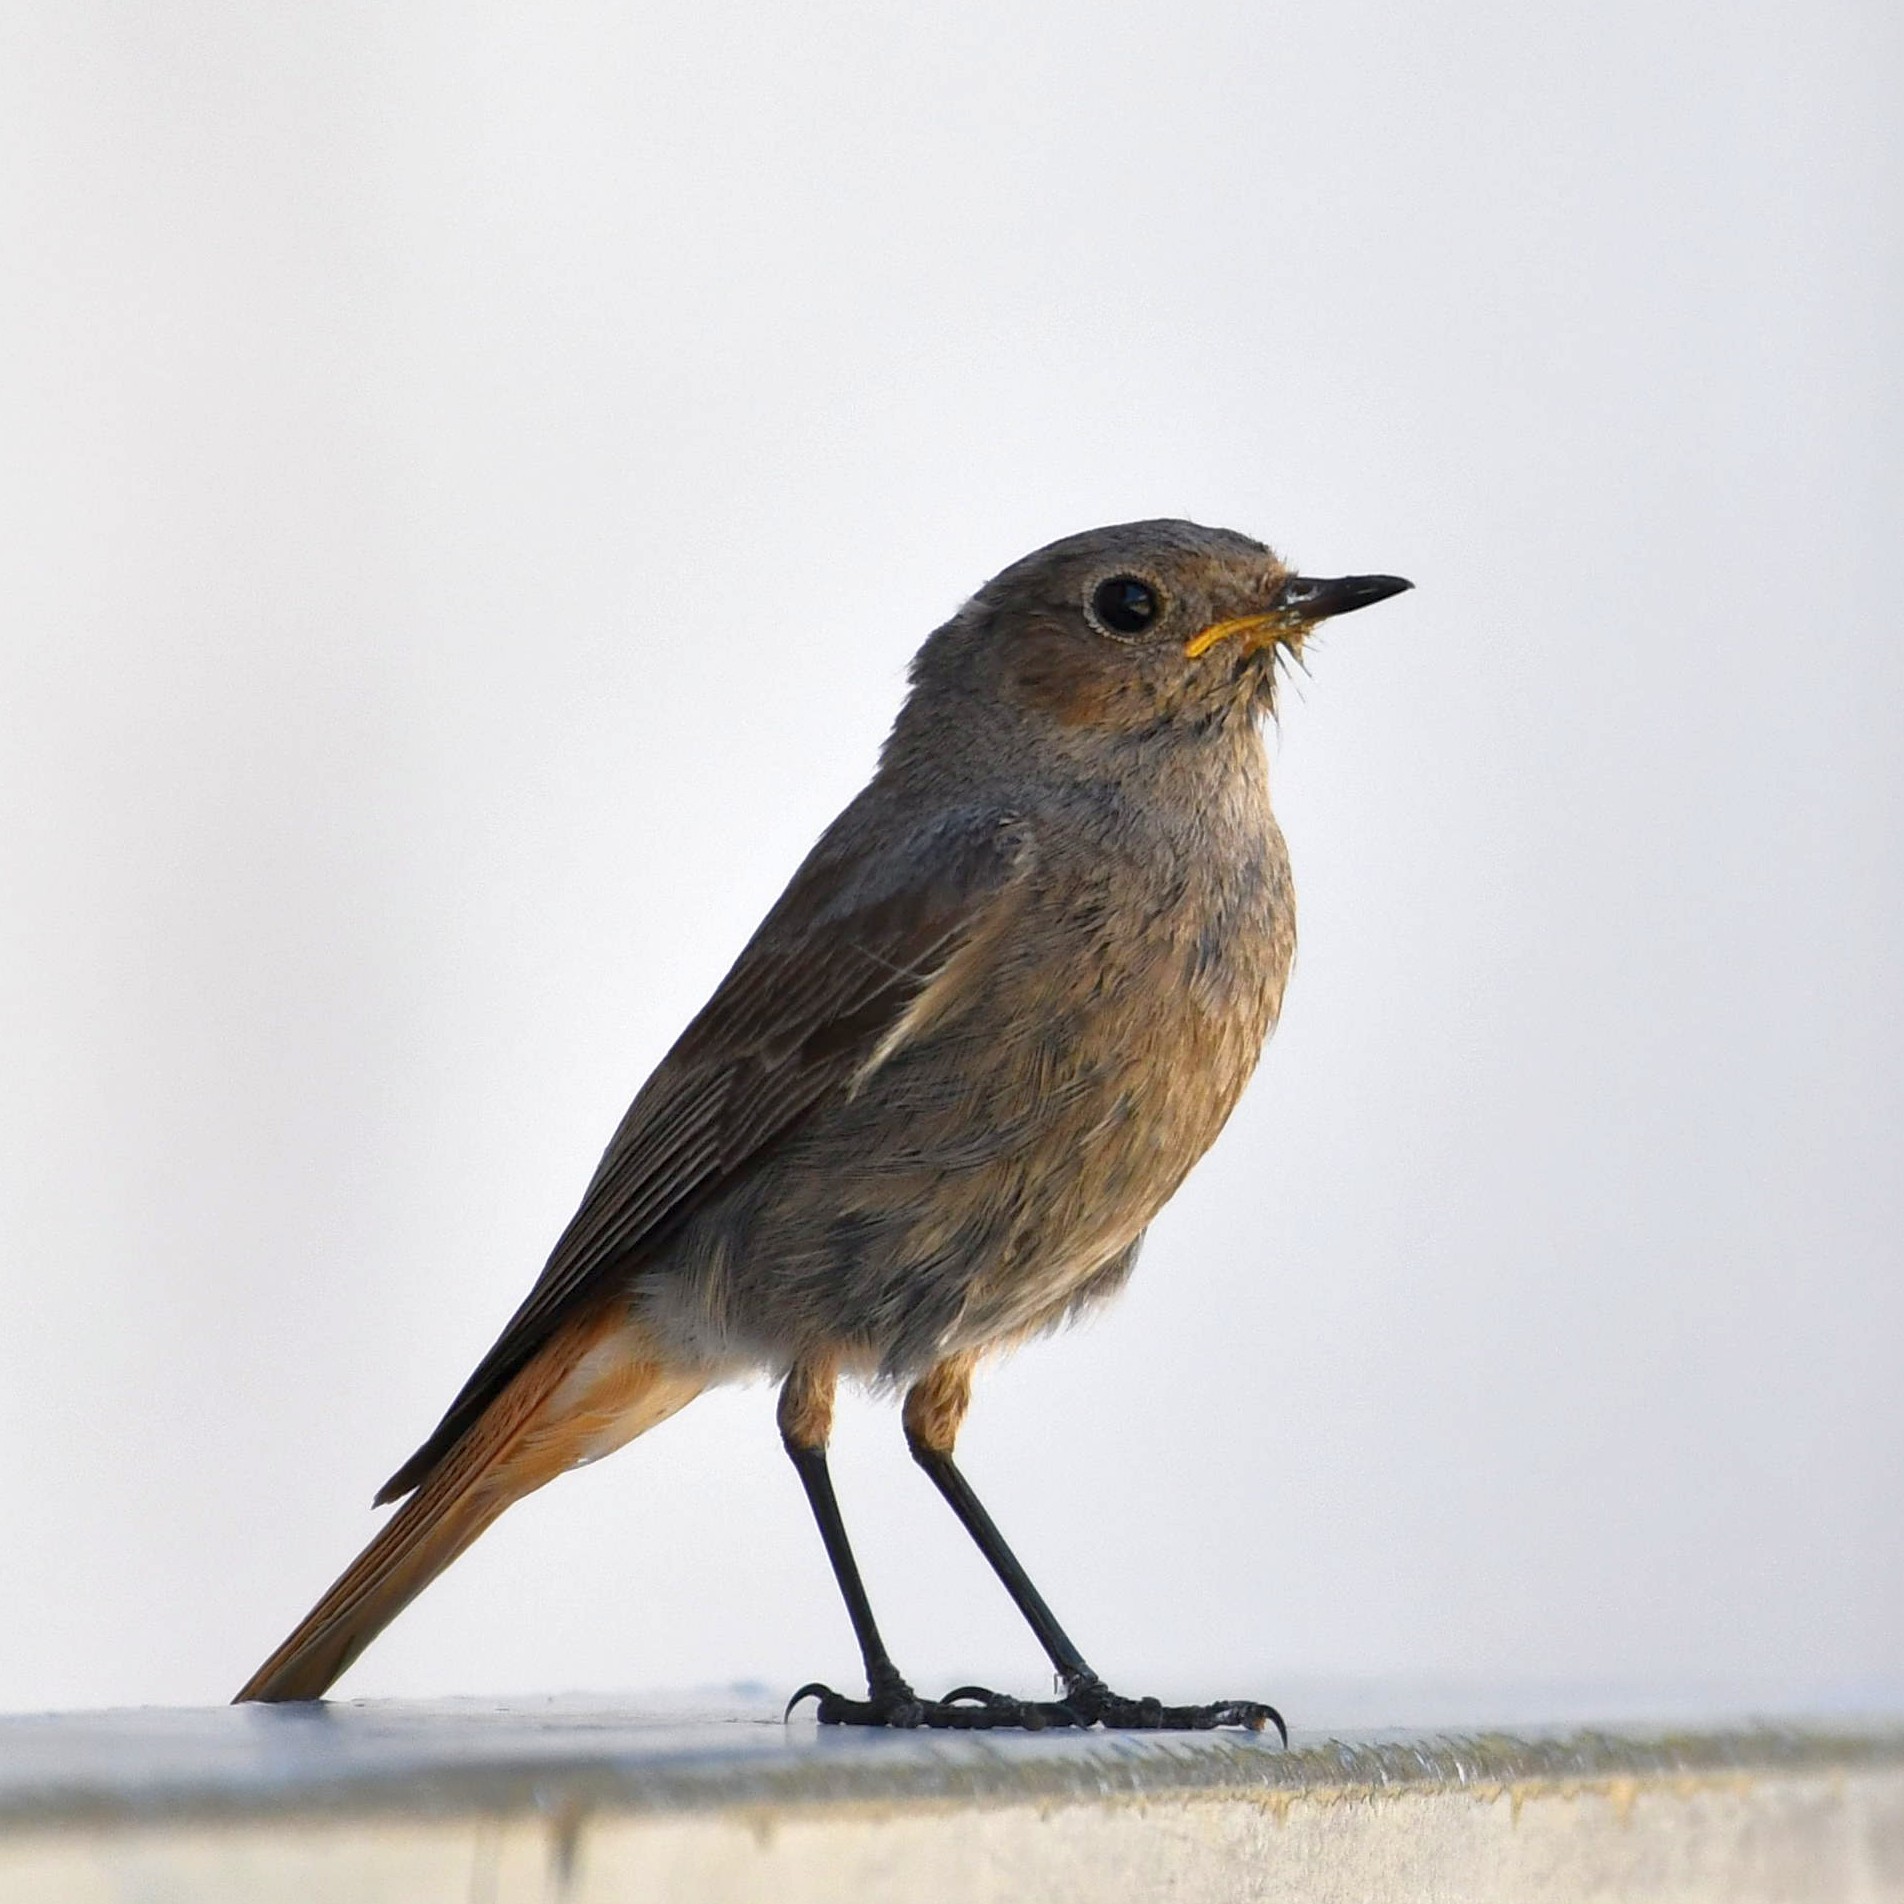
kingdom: Animalia
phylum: Chordata
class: Aves
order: Passeriformes
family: Muscicapidae
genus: Phoenicurus
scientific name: Phoenicurus ochruros
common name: Black redstart
